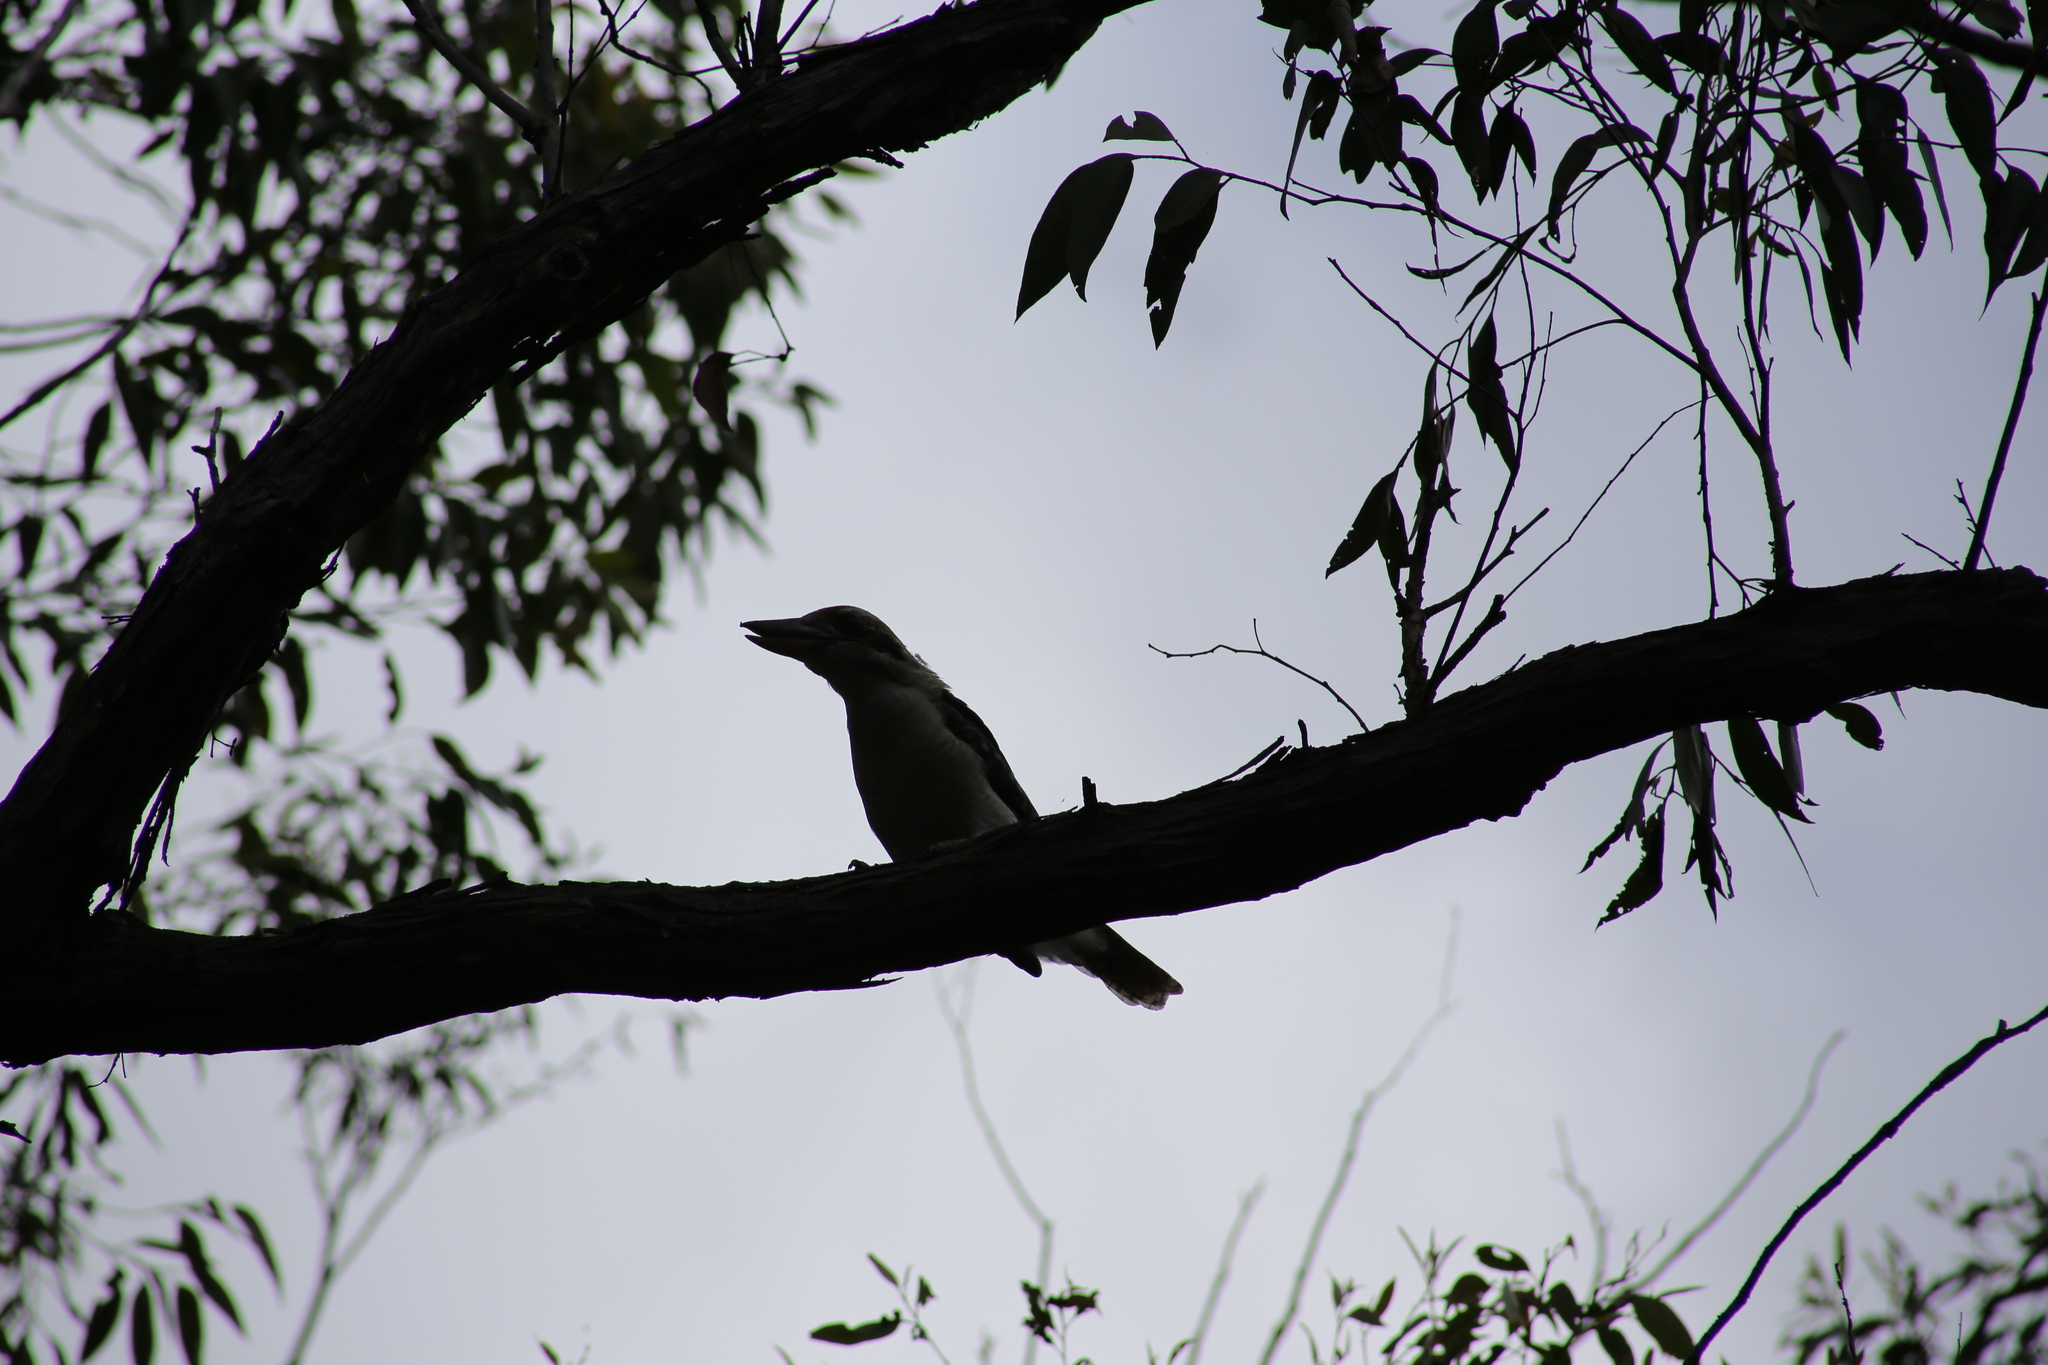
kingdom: Animalia
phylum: Chordata
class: Aves
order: Coraciiformes
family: Alcedinidae
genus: Dacelo
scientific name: Dacelo novaeguineae
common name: Laughing kookaburra
